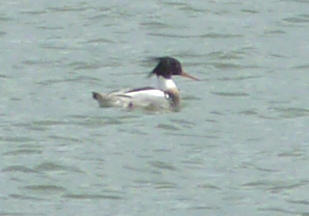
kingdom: Animalia
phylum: Chordata
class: Aves
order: Anseriformes
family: Anatidae
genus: Mergus
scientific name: Mergus serrator
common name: Red-breasted merganser
